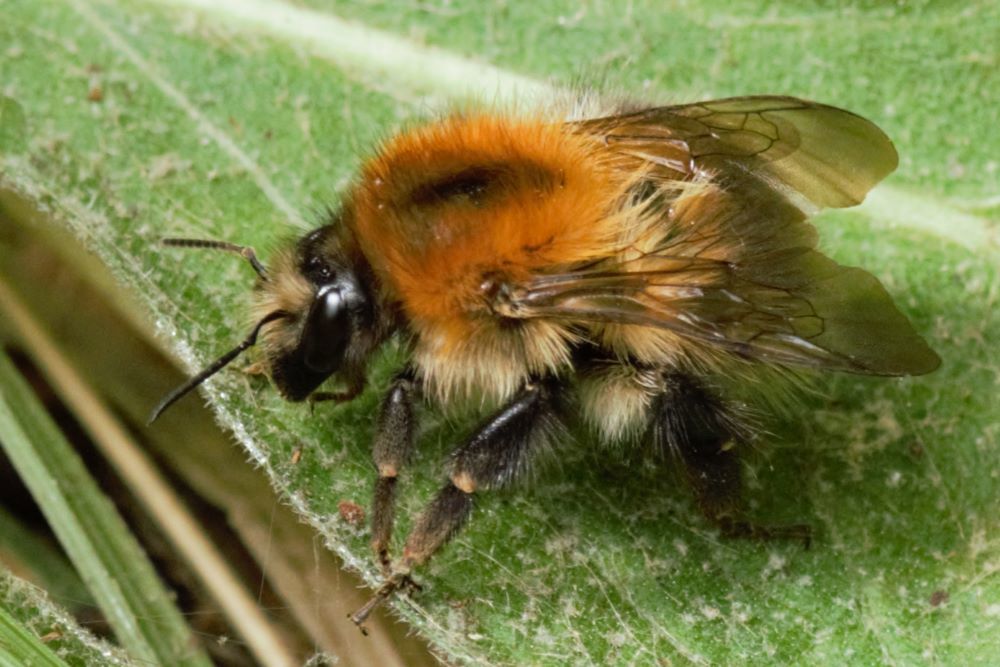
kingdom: Animalia
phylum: Arthropoda
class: Insecta
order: Hymenoptera
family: Apidae
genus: Bombus
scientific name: Bombus pascuorum
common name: Common carder bee
